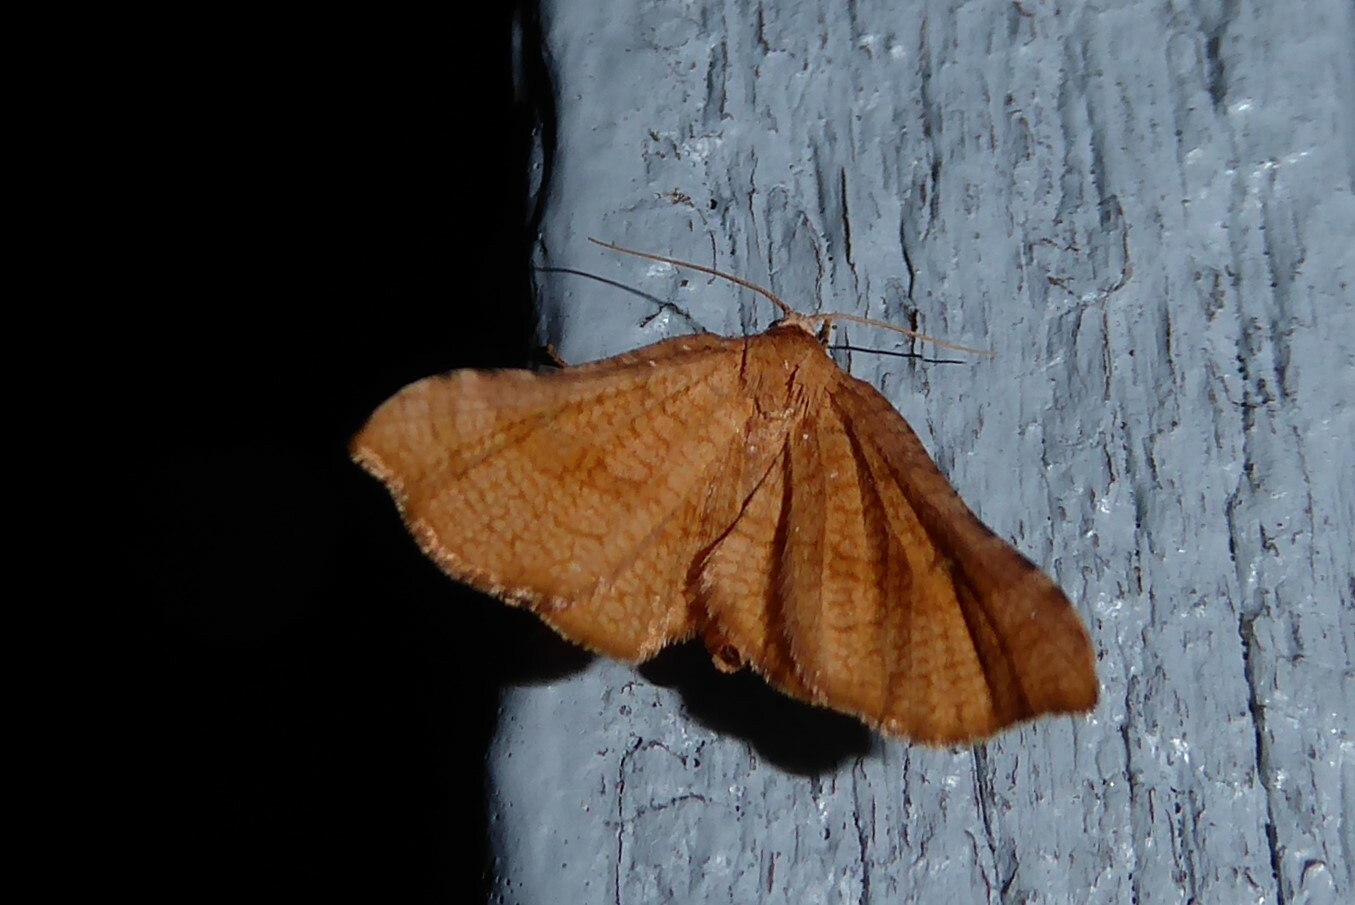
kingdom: Animalia
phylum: Arthropoda
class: Insecta
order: Lepidoptera
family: Thyrididae
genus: Morova
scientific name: Morova subfasciata
